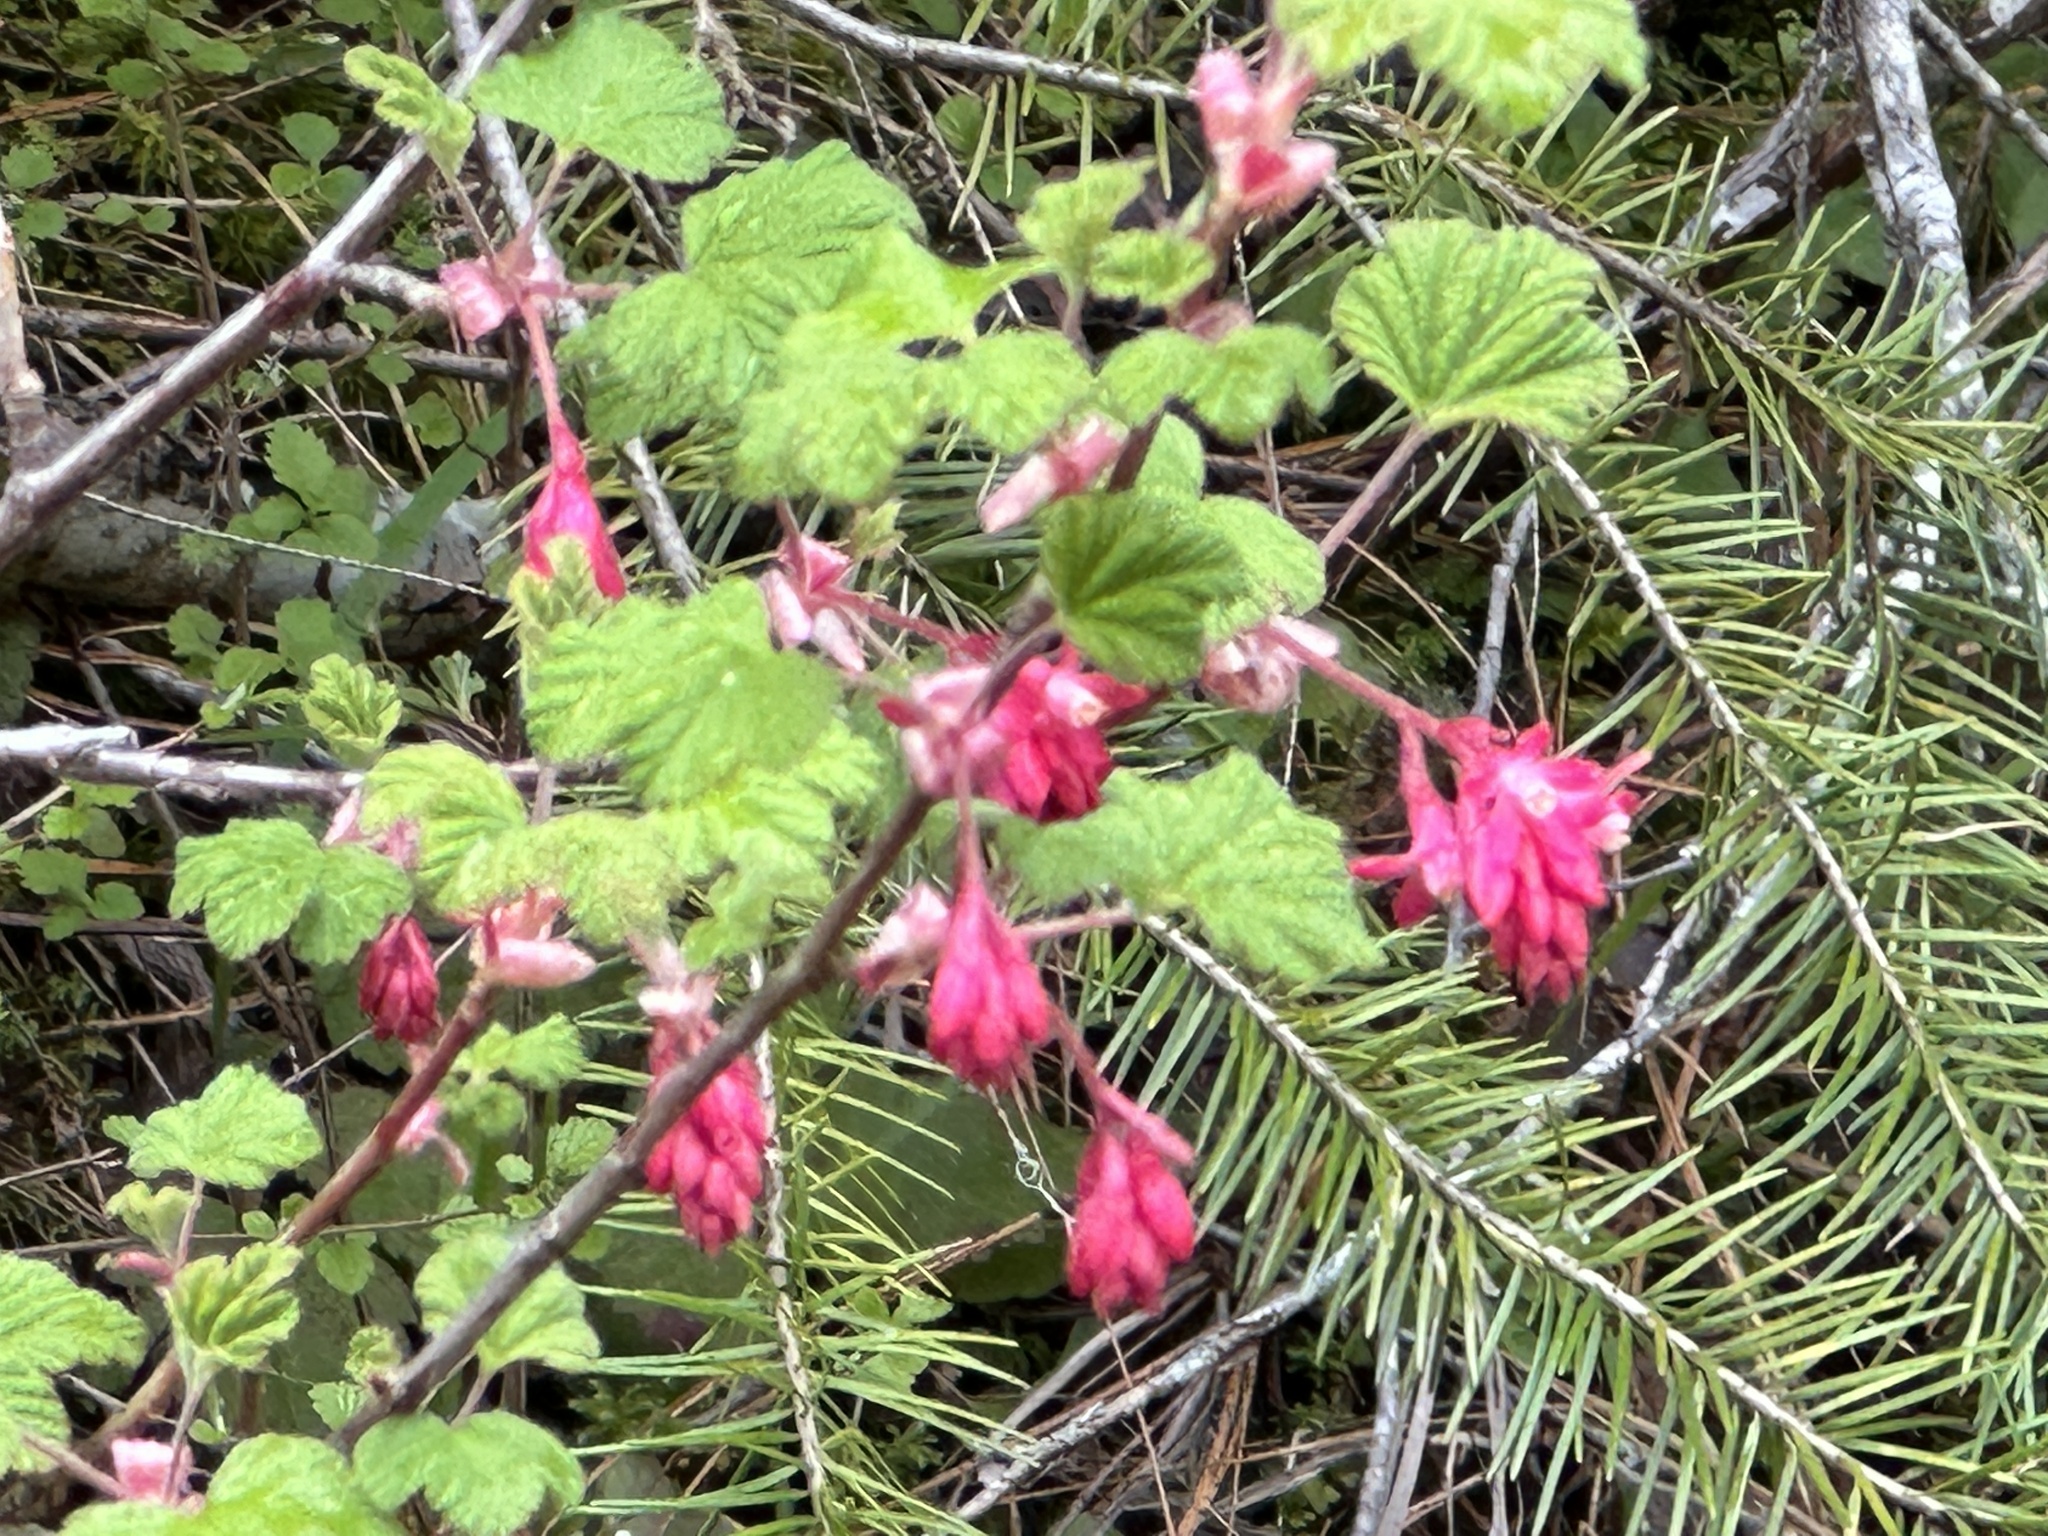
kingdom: Plantae
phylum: Tracheophyta
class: Magnoliopsida
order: Saxifragales
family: Grossulariaceae
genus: Ribes
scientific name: Ribes sanguineum
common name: Flowering currant
